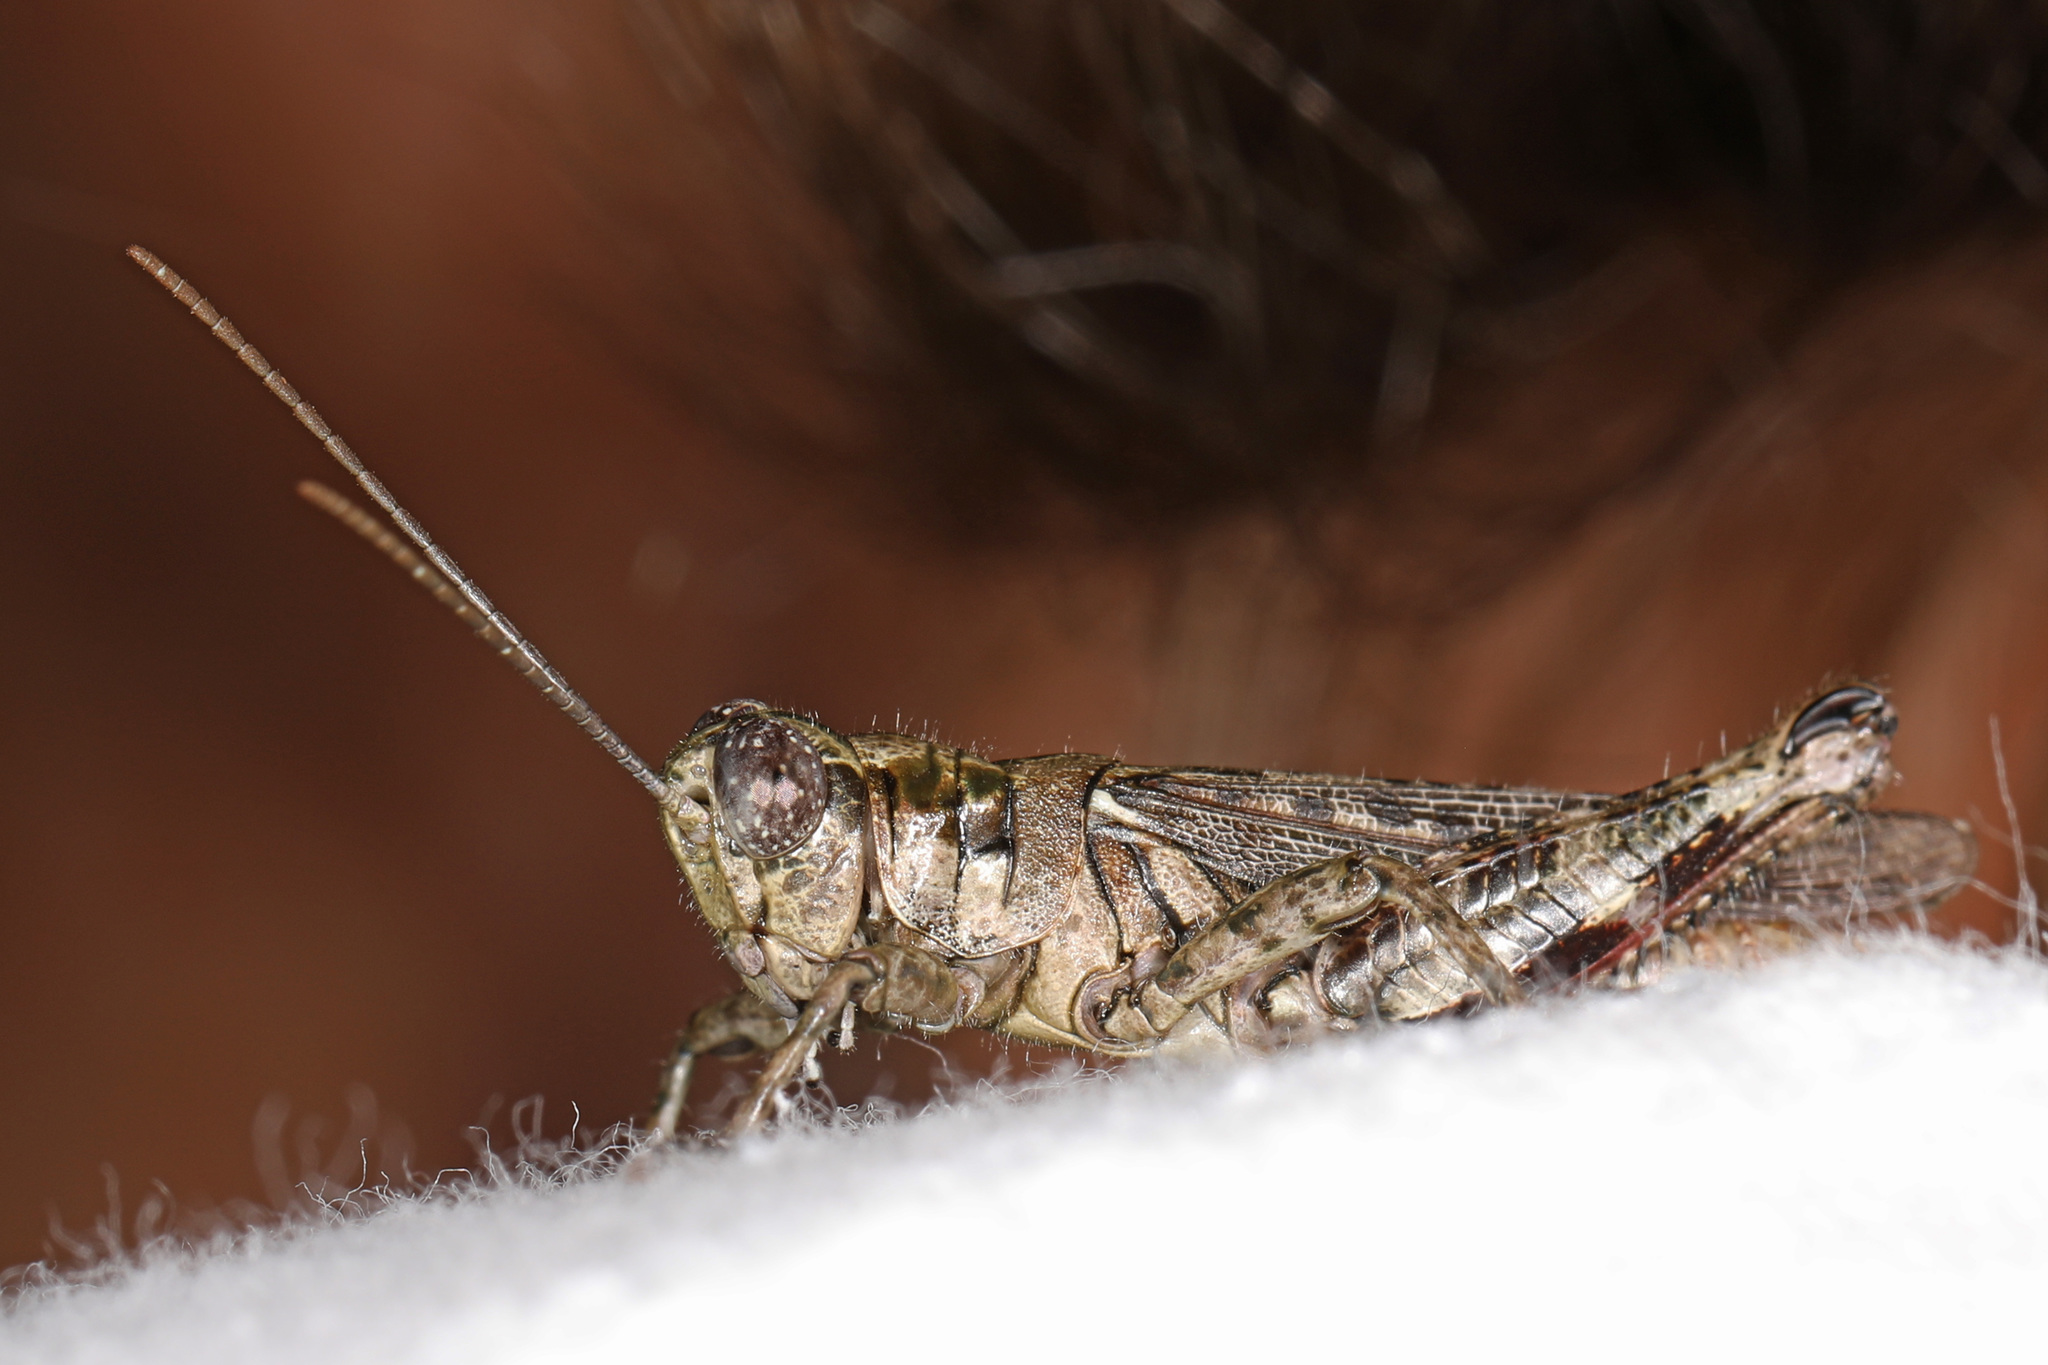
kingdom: Animalia
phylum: Arthropoda
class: Insecta
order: Orthoptera
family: Acrididae
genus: Melanoplus
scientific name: Melanoplus punctulatus
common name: Pine-tree spur-throat grasshopper
